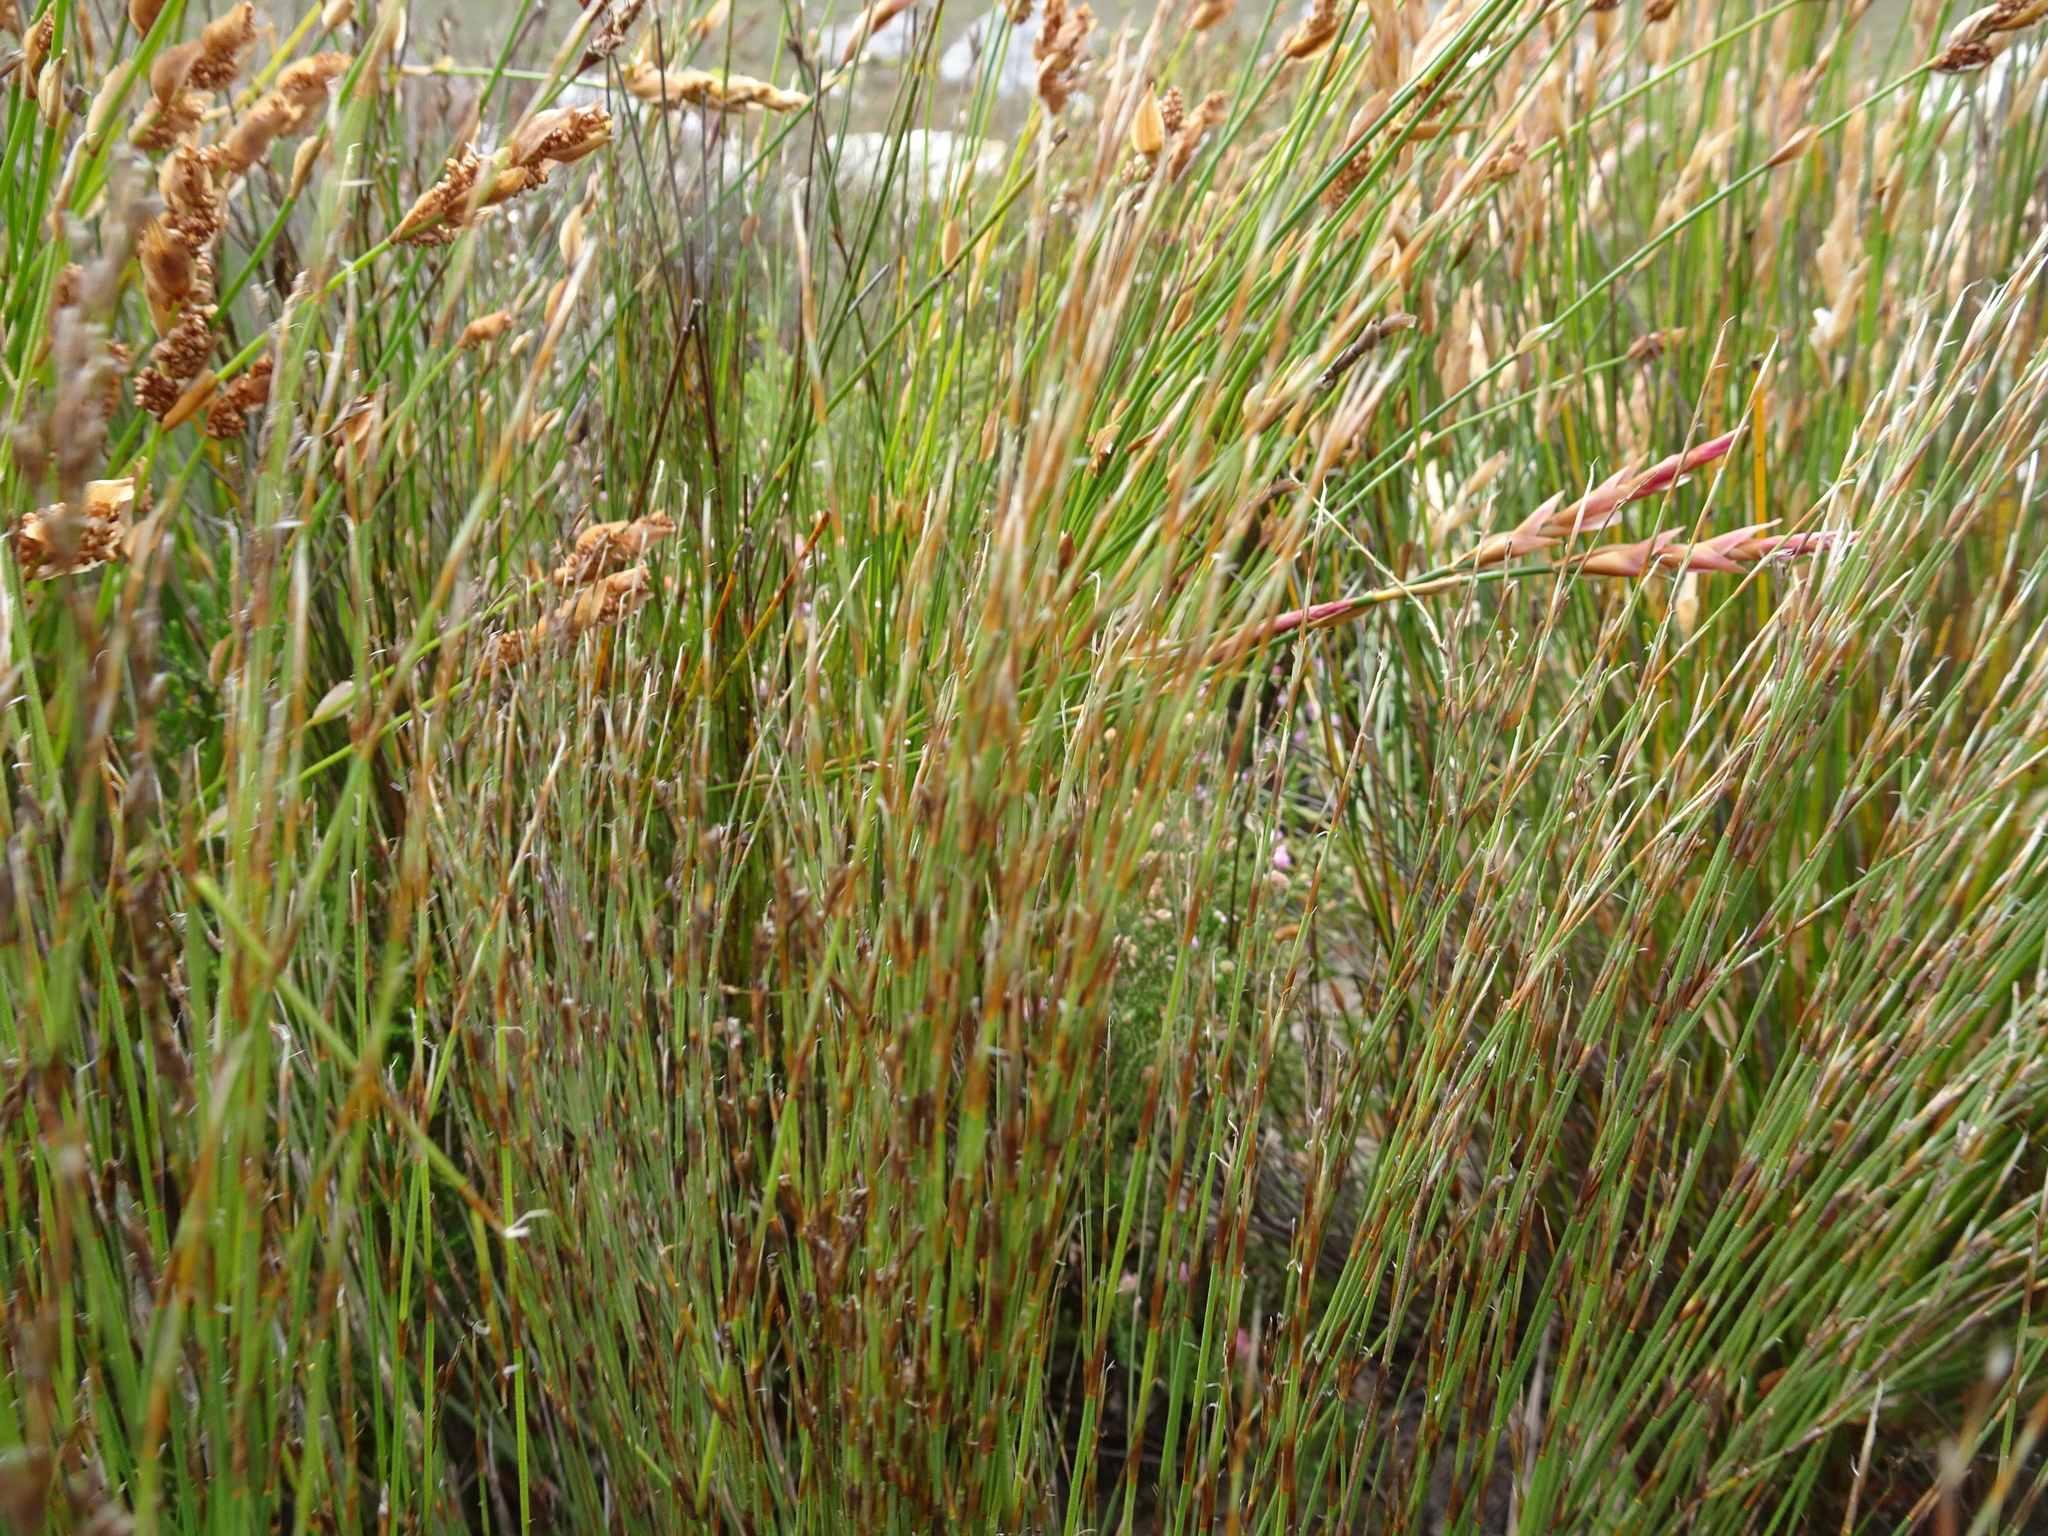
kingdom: Plantae
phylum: Tracheophyta
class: Liliopsida
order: Poales
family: Restionaceae
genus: Elegia
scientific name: Elegia stipularis
